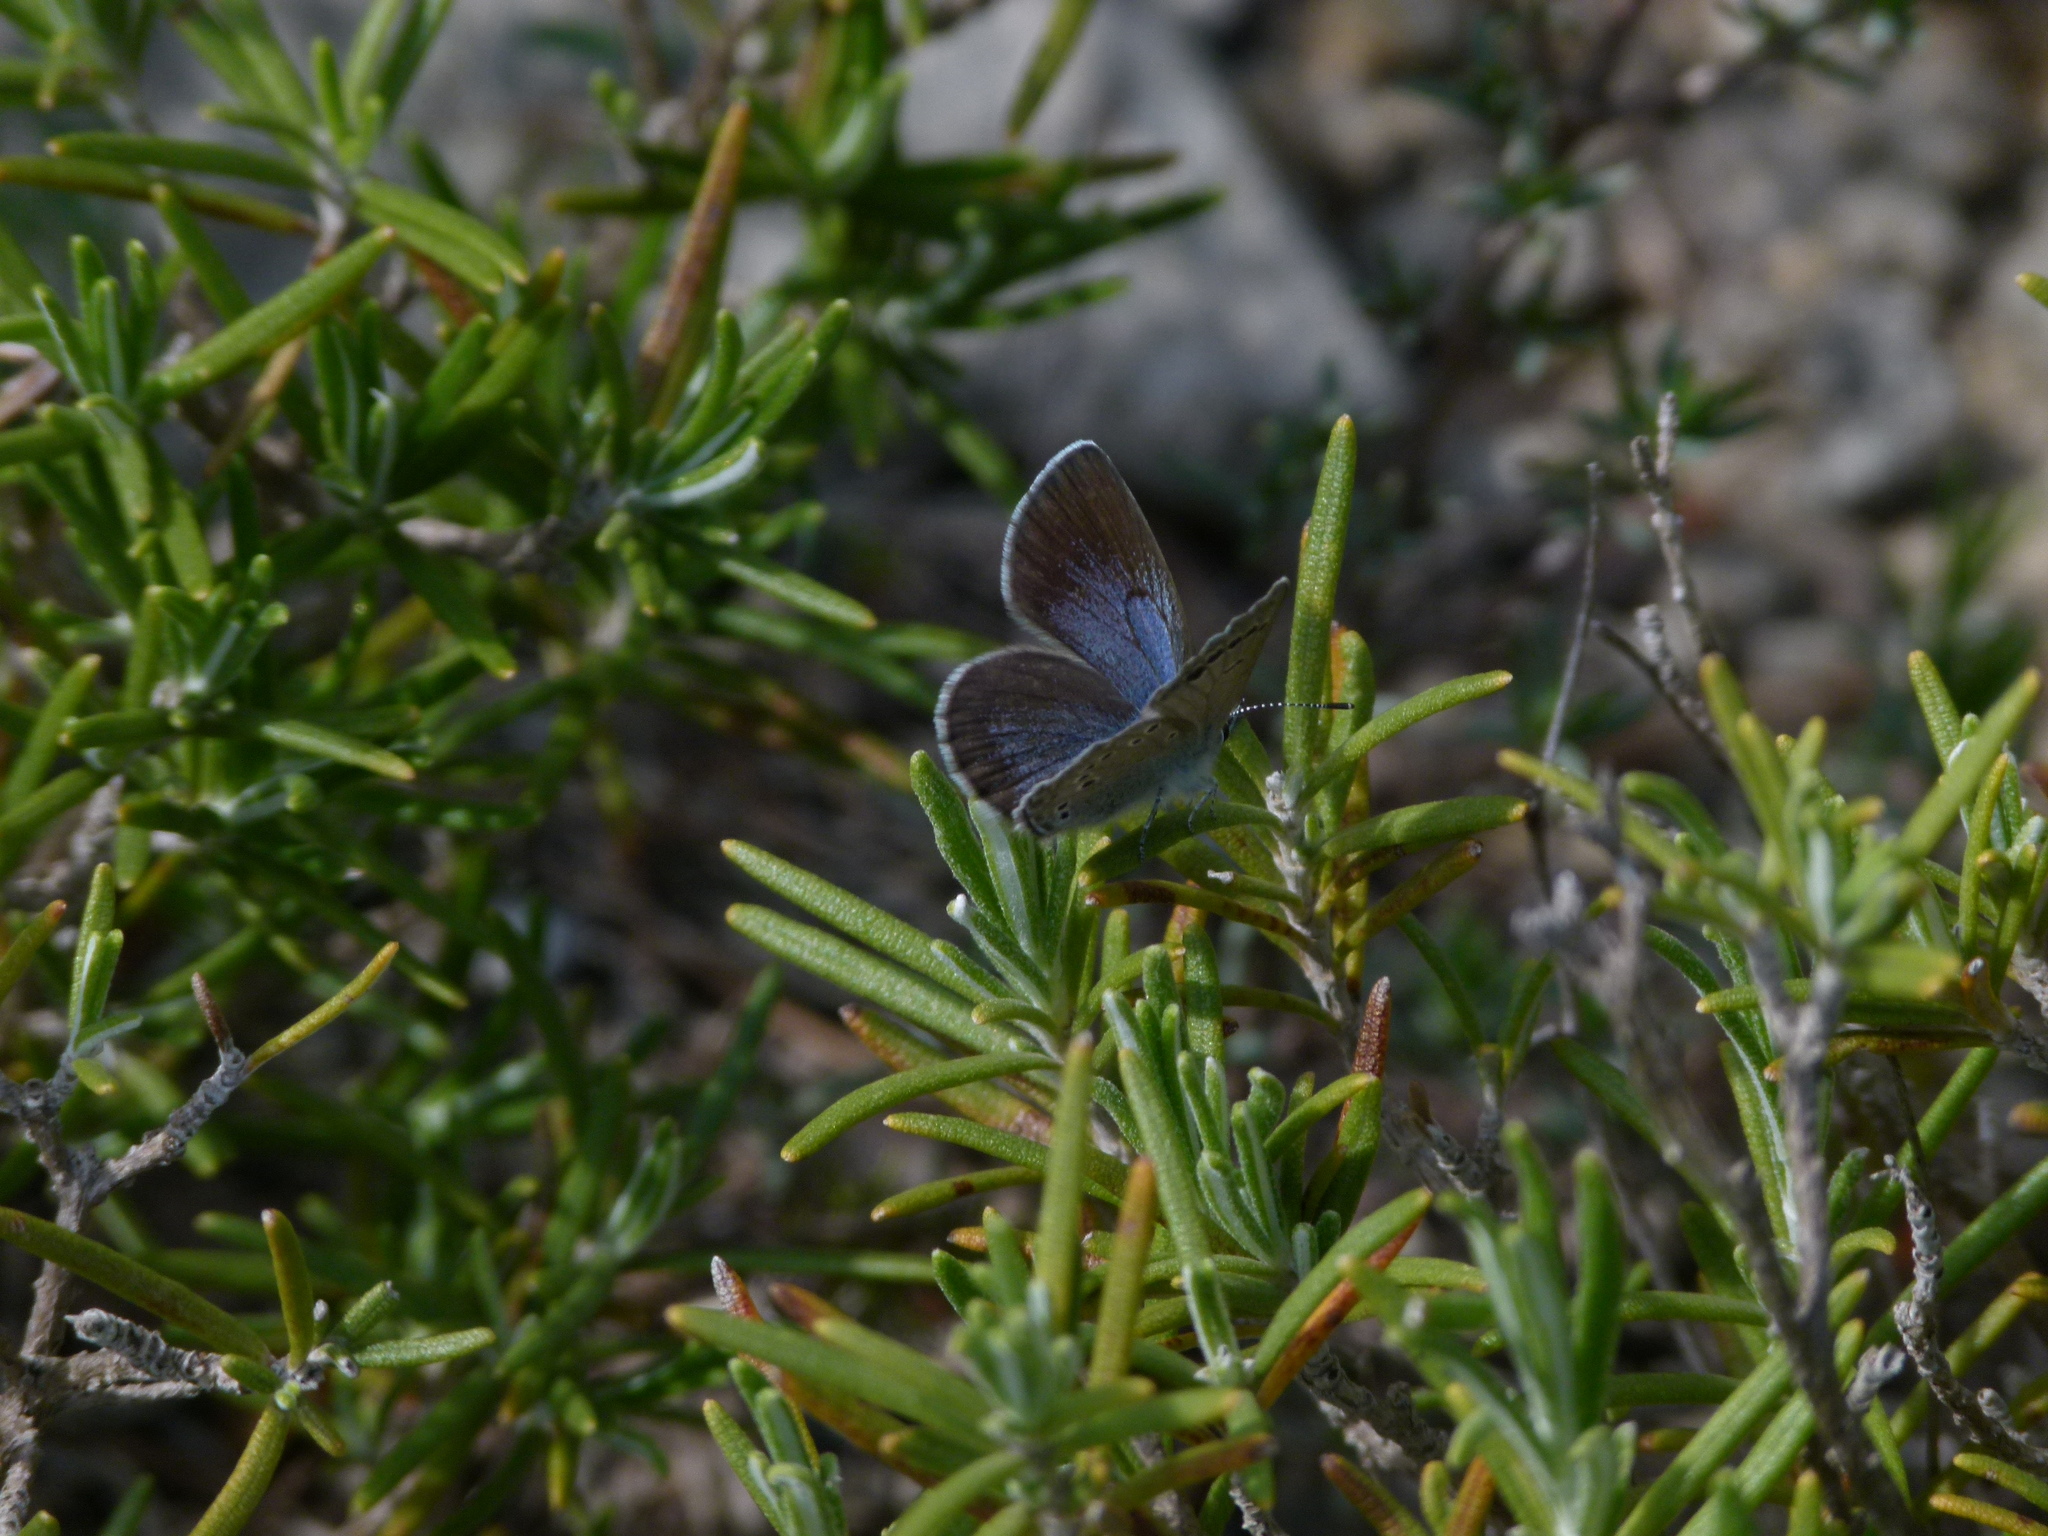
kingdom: Animalia
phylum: Arthropoda
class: Insecta
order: Lepidoptera
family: Lycaenidae
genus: Glaucopsyche
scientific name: Glaucopsyche melanops
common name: Black-eyed blue
